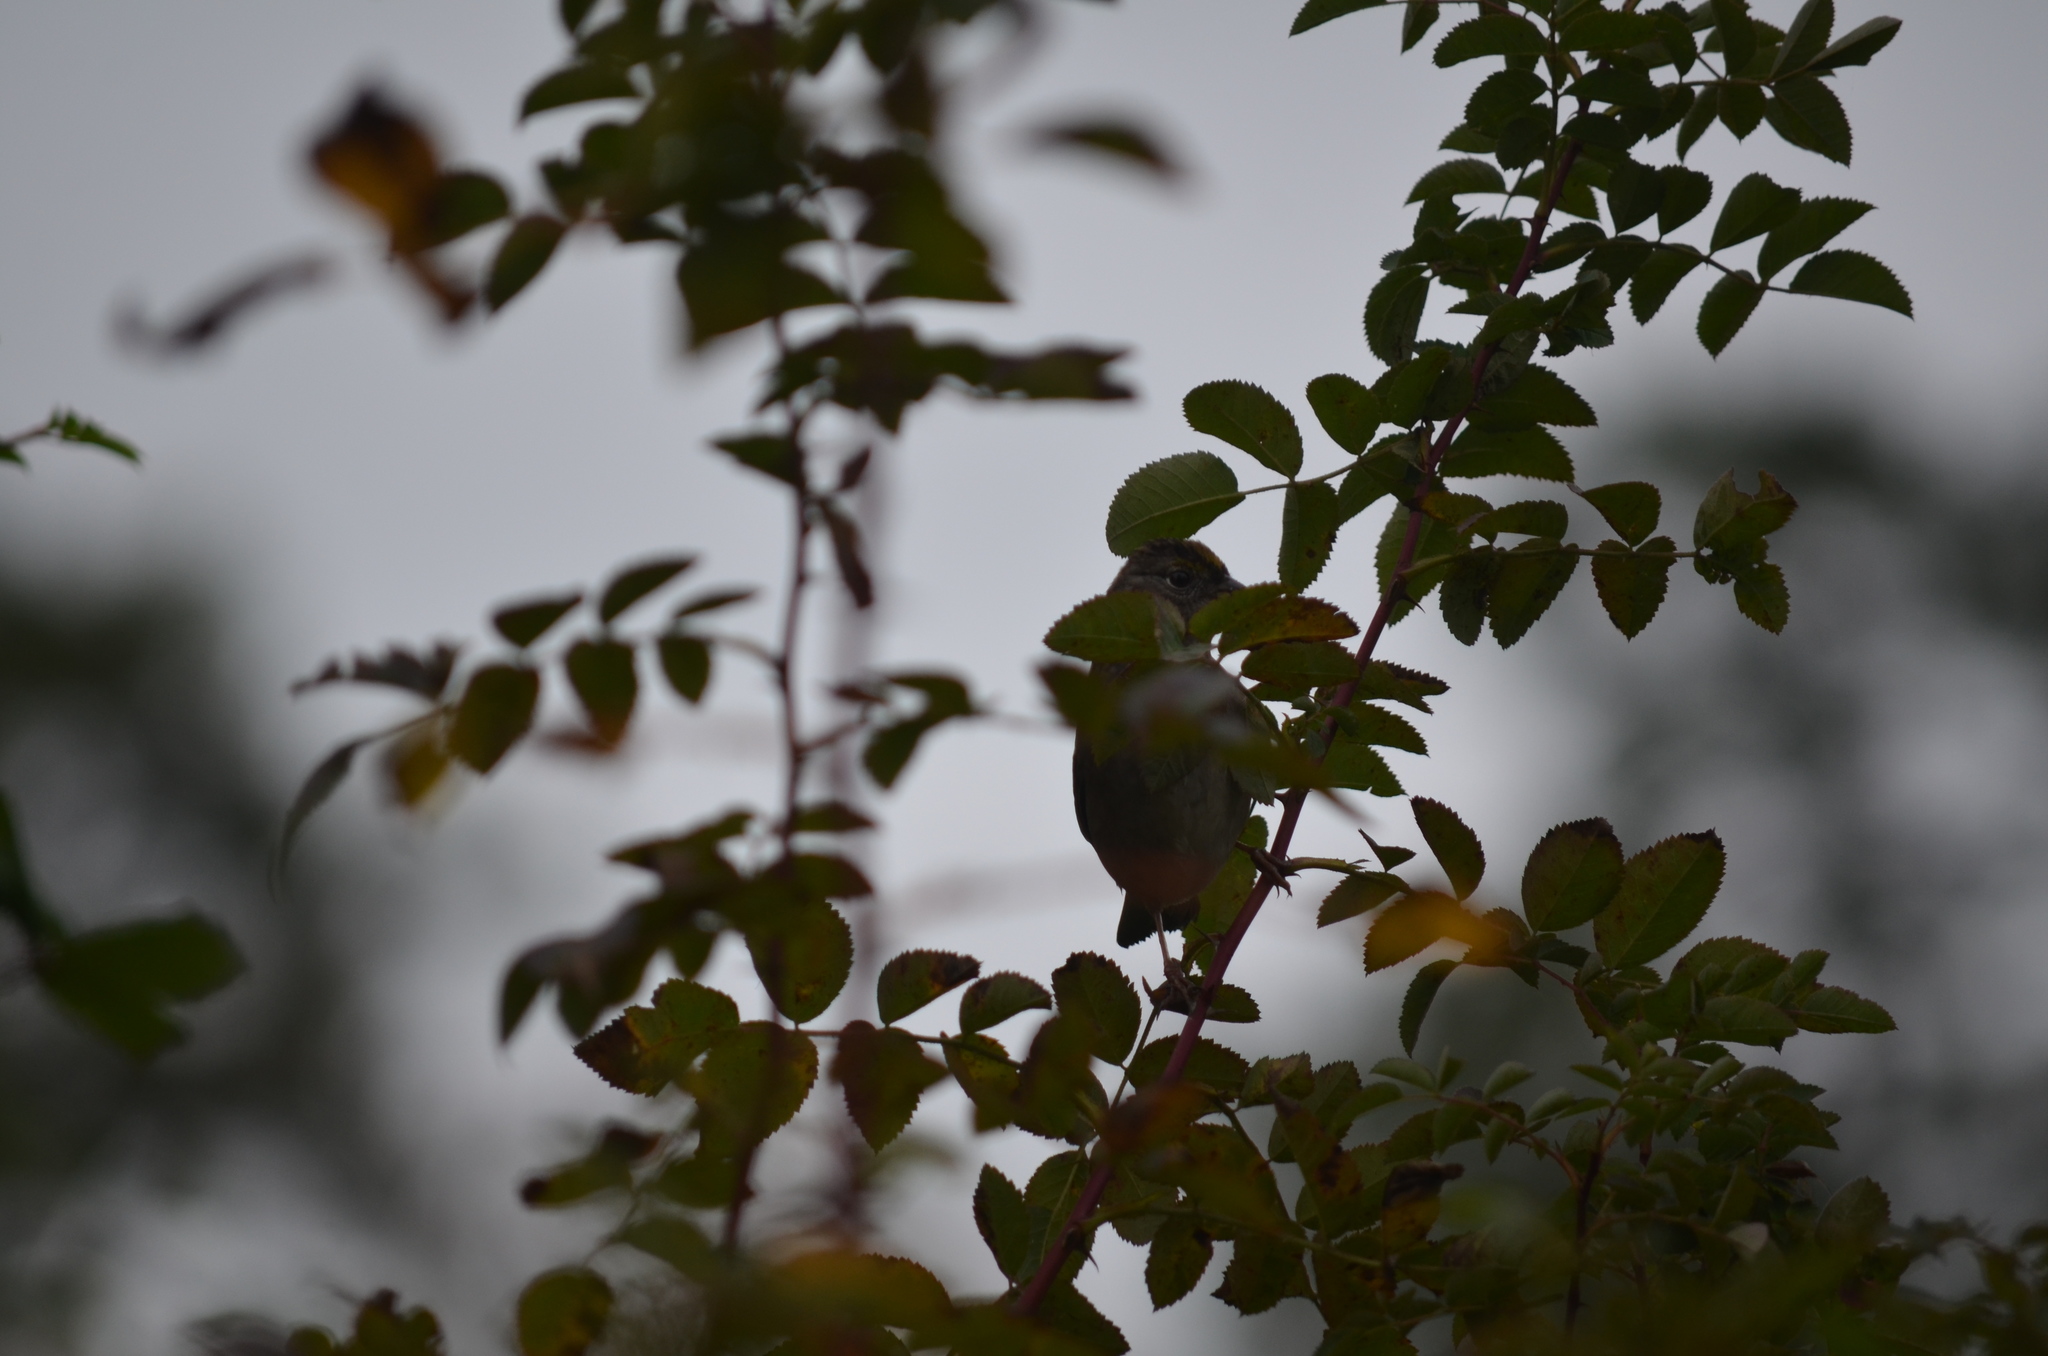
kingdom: Animalia
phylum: Chordata
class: Aves
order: Passeriformes
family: Passerellidae
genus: Zonotrichia
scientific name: Zonotrichia atricapilla
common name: Golden-crowned sparrow
